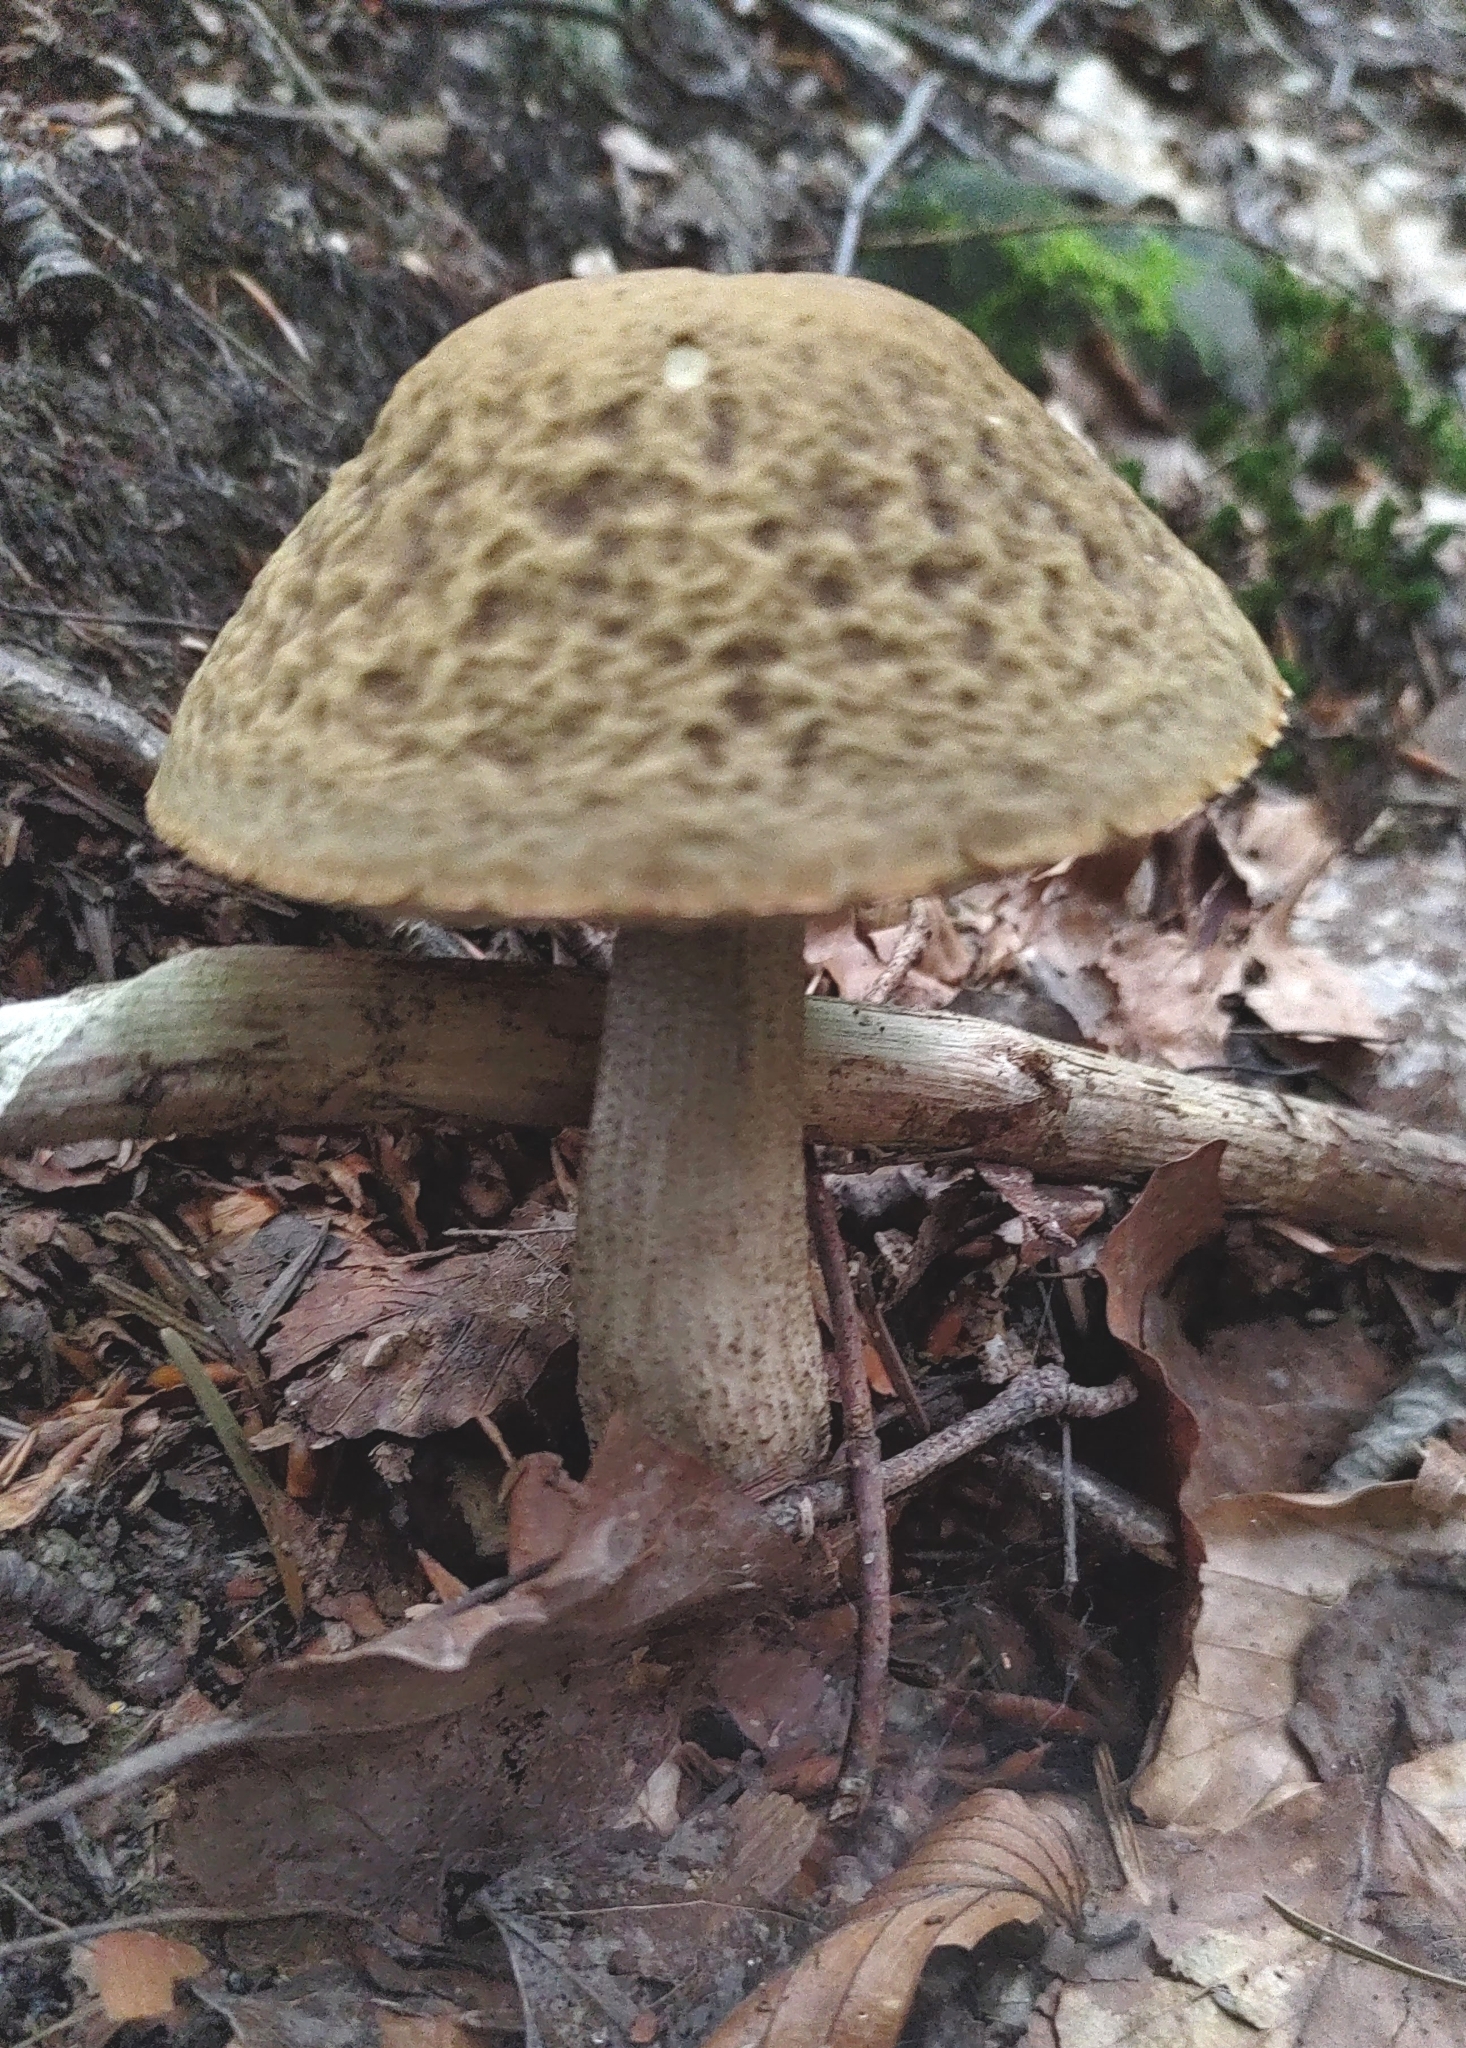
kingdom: Fungi
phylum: Basidiomycota
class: Agaricomycetes
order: Boletales
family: Boletaceae
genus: Leccinellum
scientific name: Leccinellum pseudoscabrum
